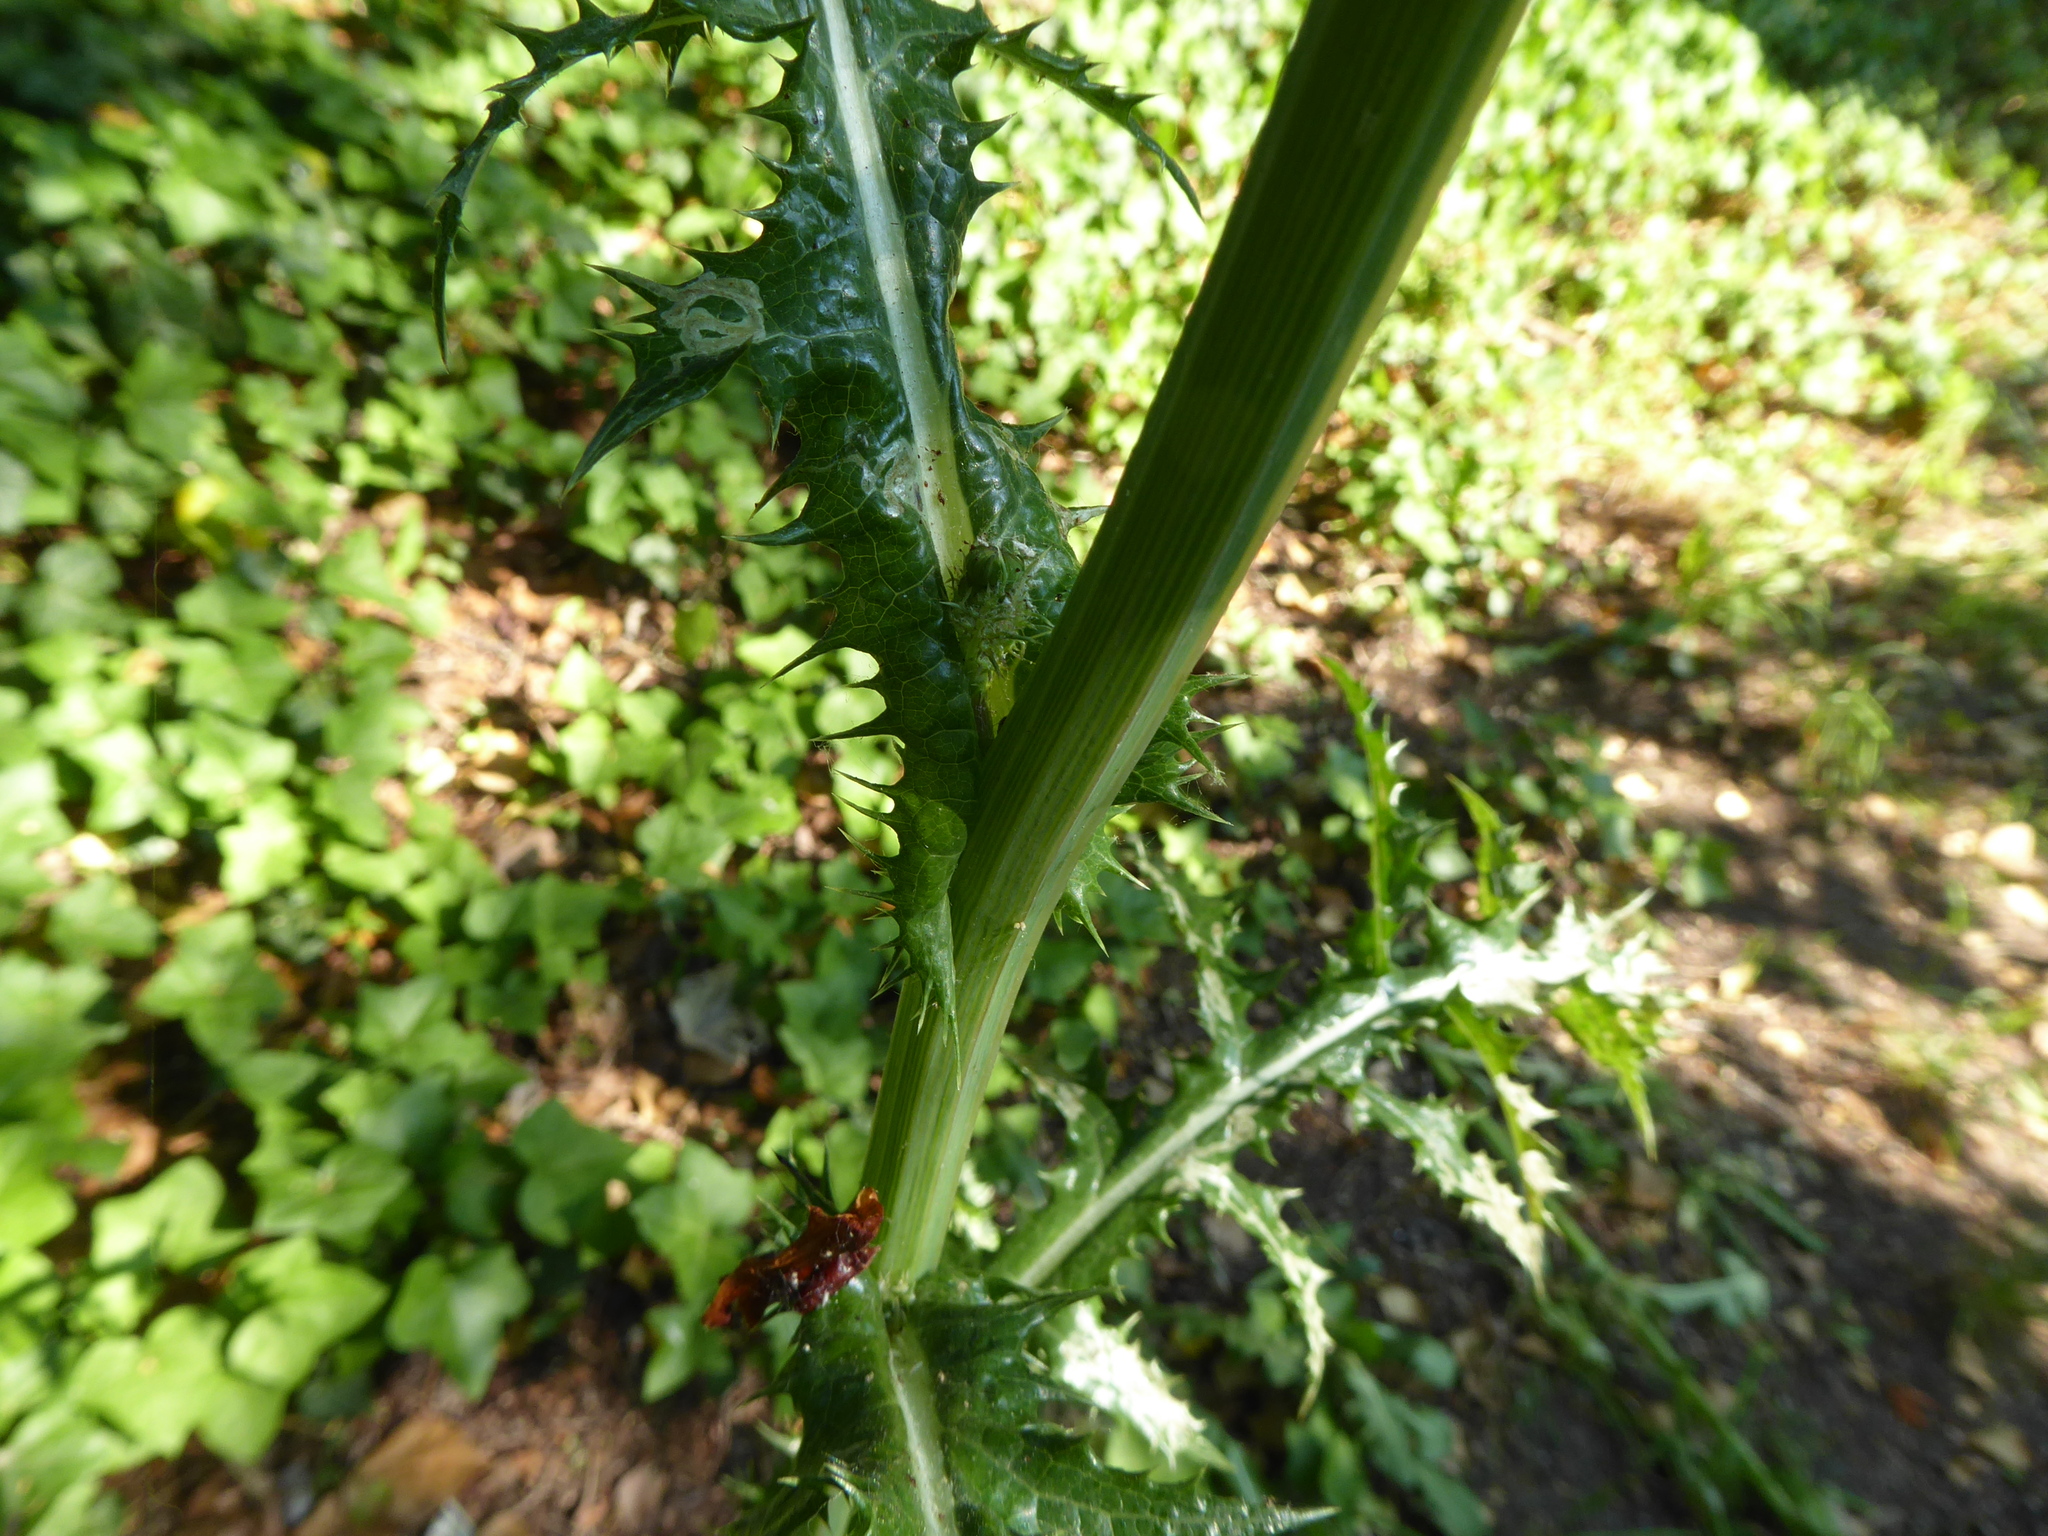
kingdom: Plantae
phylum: Tracheophyta
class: Magnoliopsida
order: Asterales
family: Asteraceae
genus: Sonchus
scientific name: Sonchus asper
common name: Prickly sow-thistle
